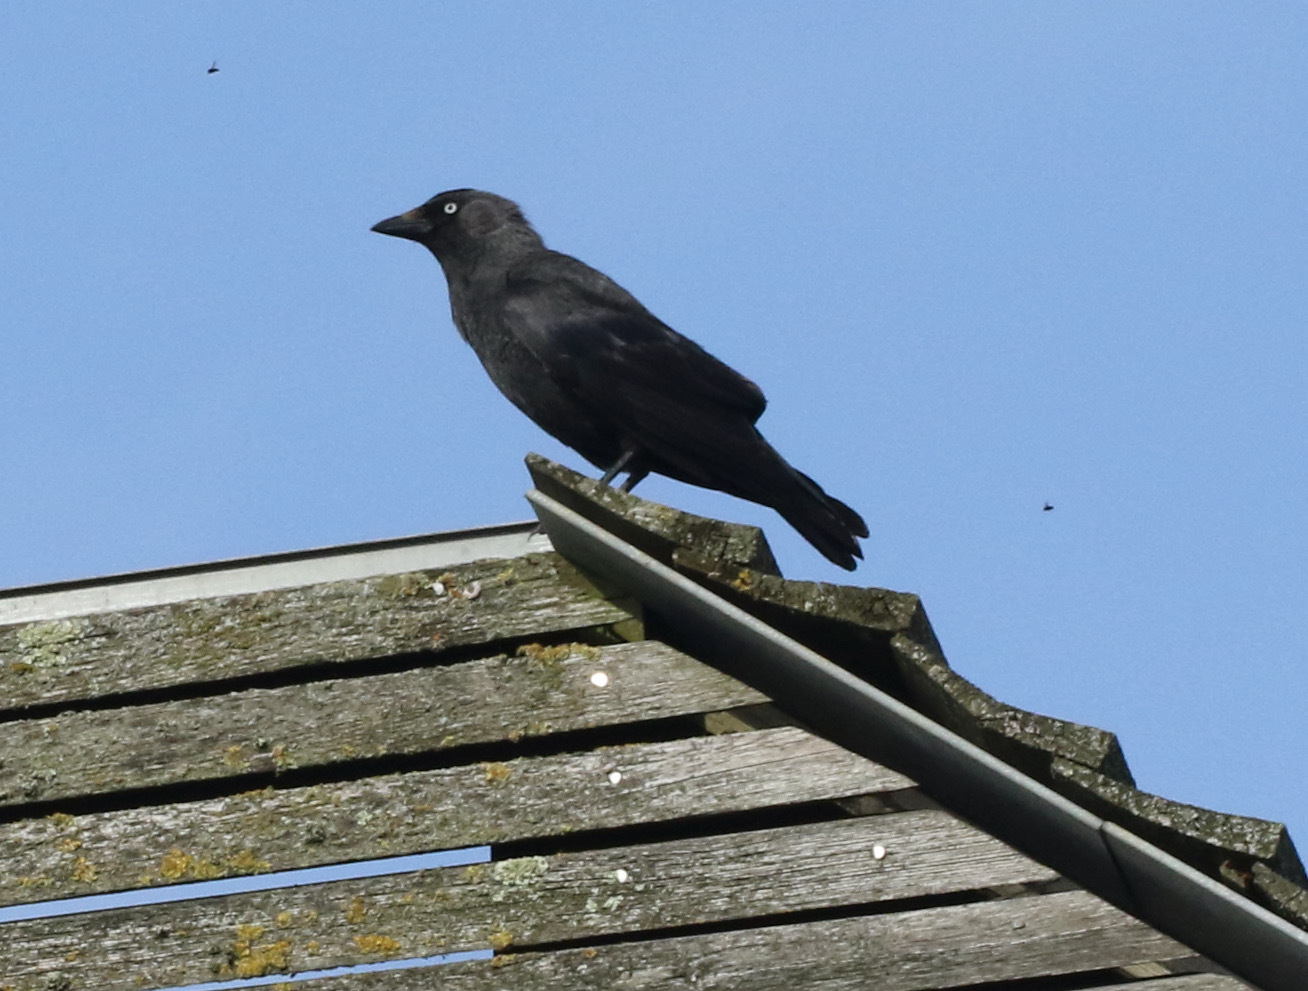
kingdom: Animalia
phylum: Chordata
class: Aves
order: Passeriformes
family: Corvidae
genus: Coloeus
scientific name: Coloeus monedula
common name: Western jackdaw
